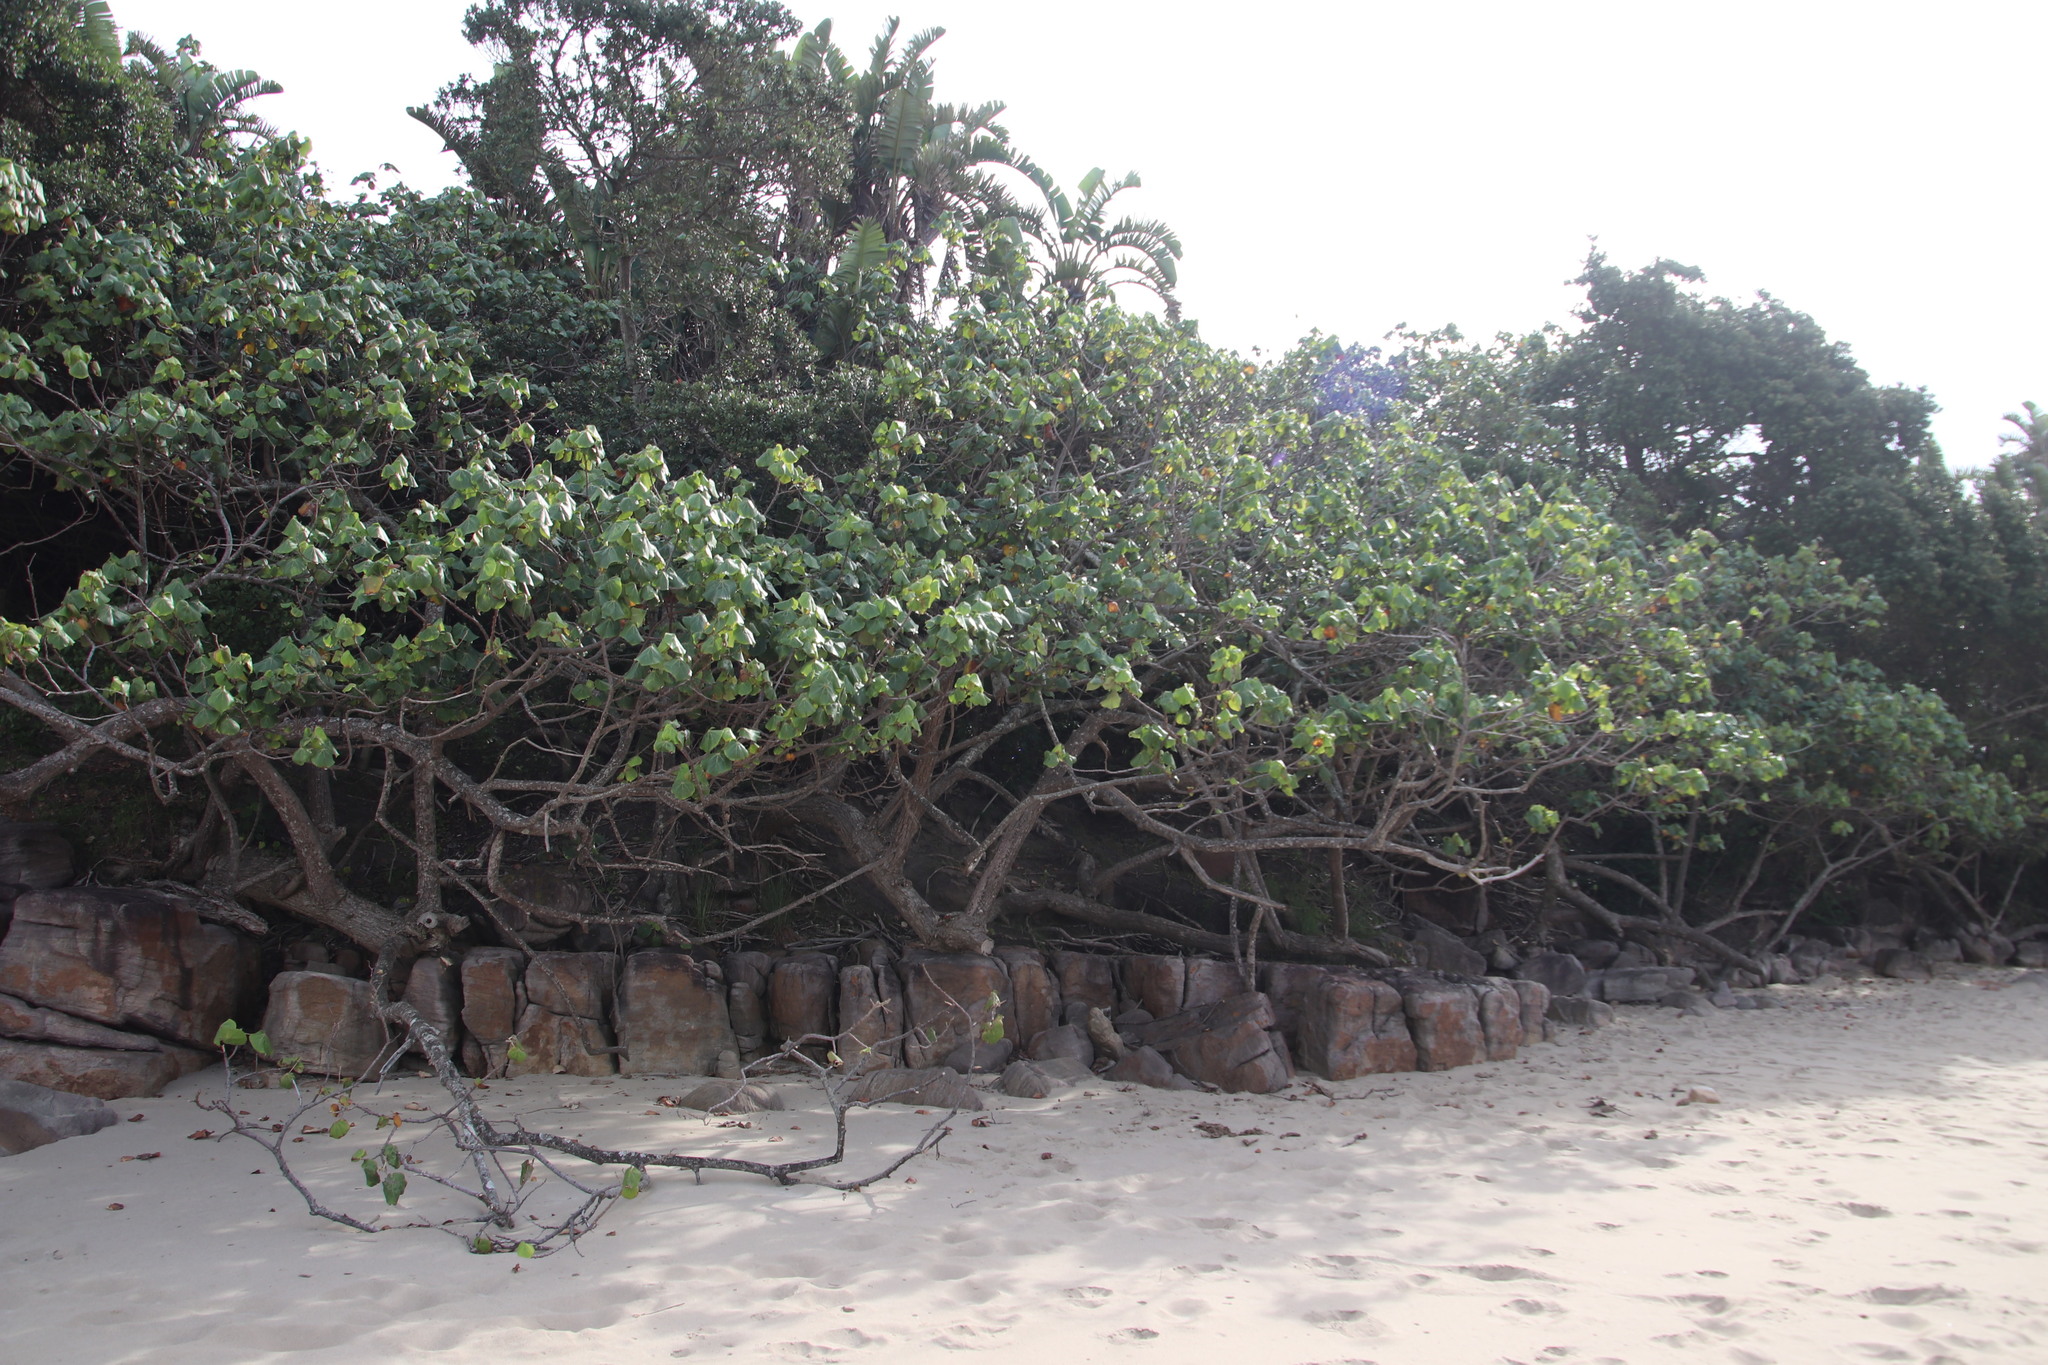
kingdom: Plantae
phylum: Tracheophyta
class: Magnoliopsida
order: Malvales
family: Malvaceae
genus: Talipariti
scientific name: Talipariti tiliaceum
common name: Sea hibiscus
